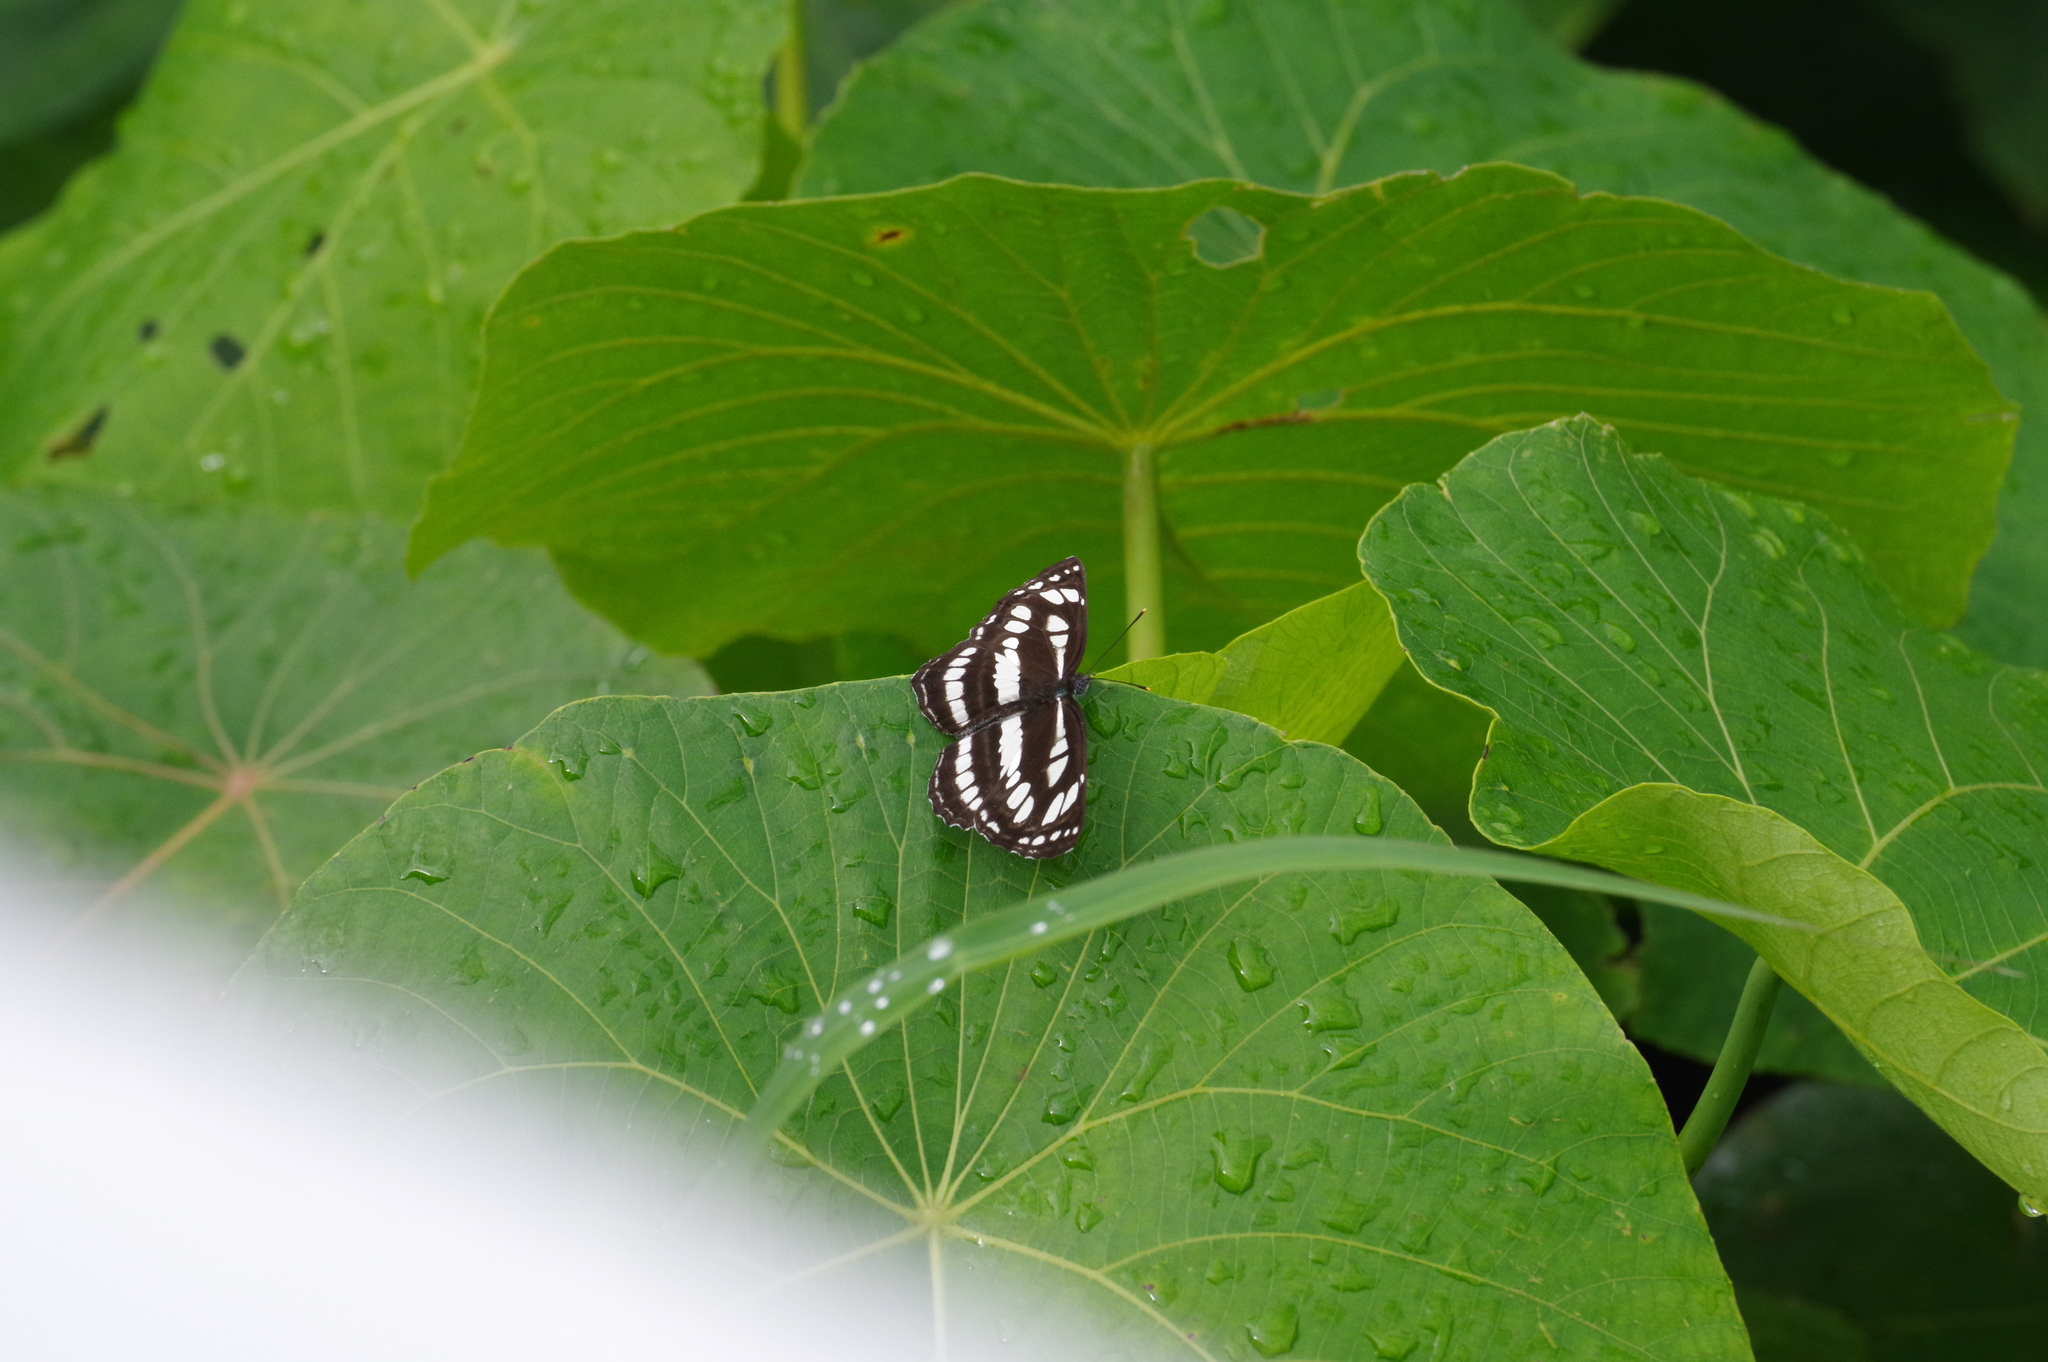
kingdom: Animalia
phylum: Arthropoda
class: Insecta
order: Lepidoptera
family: Nymphalidae
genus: Neptis
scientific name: Neptis hylas
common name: Common sailer
